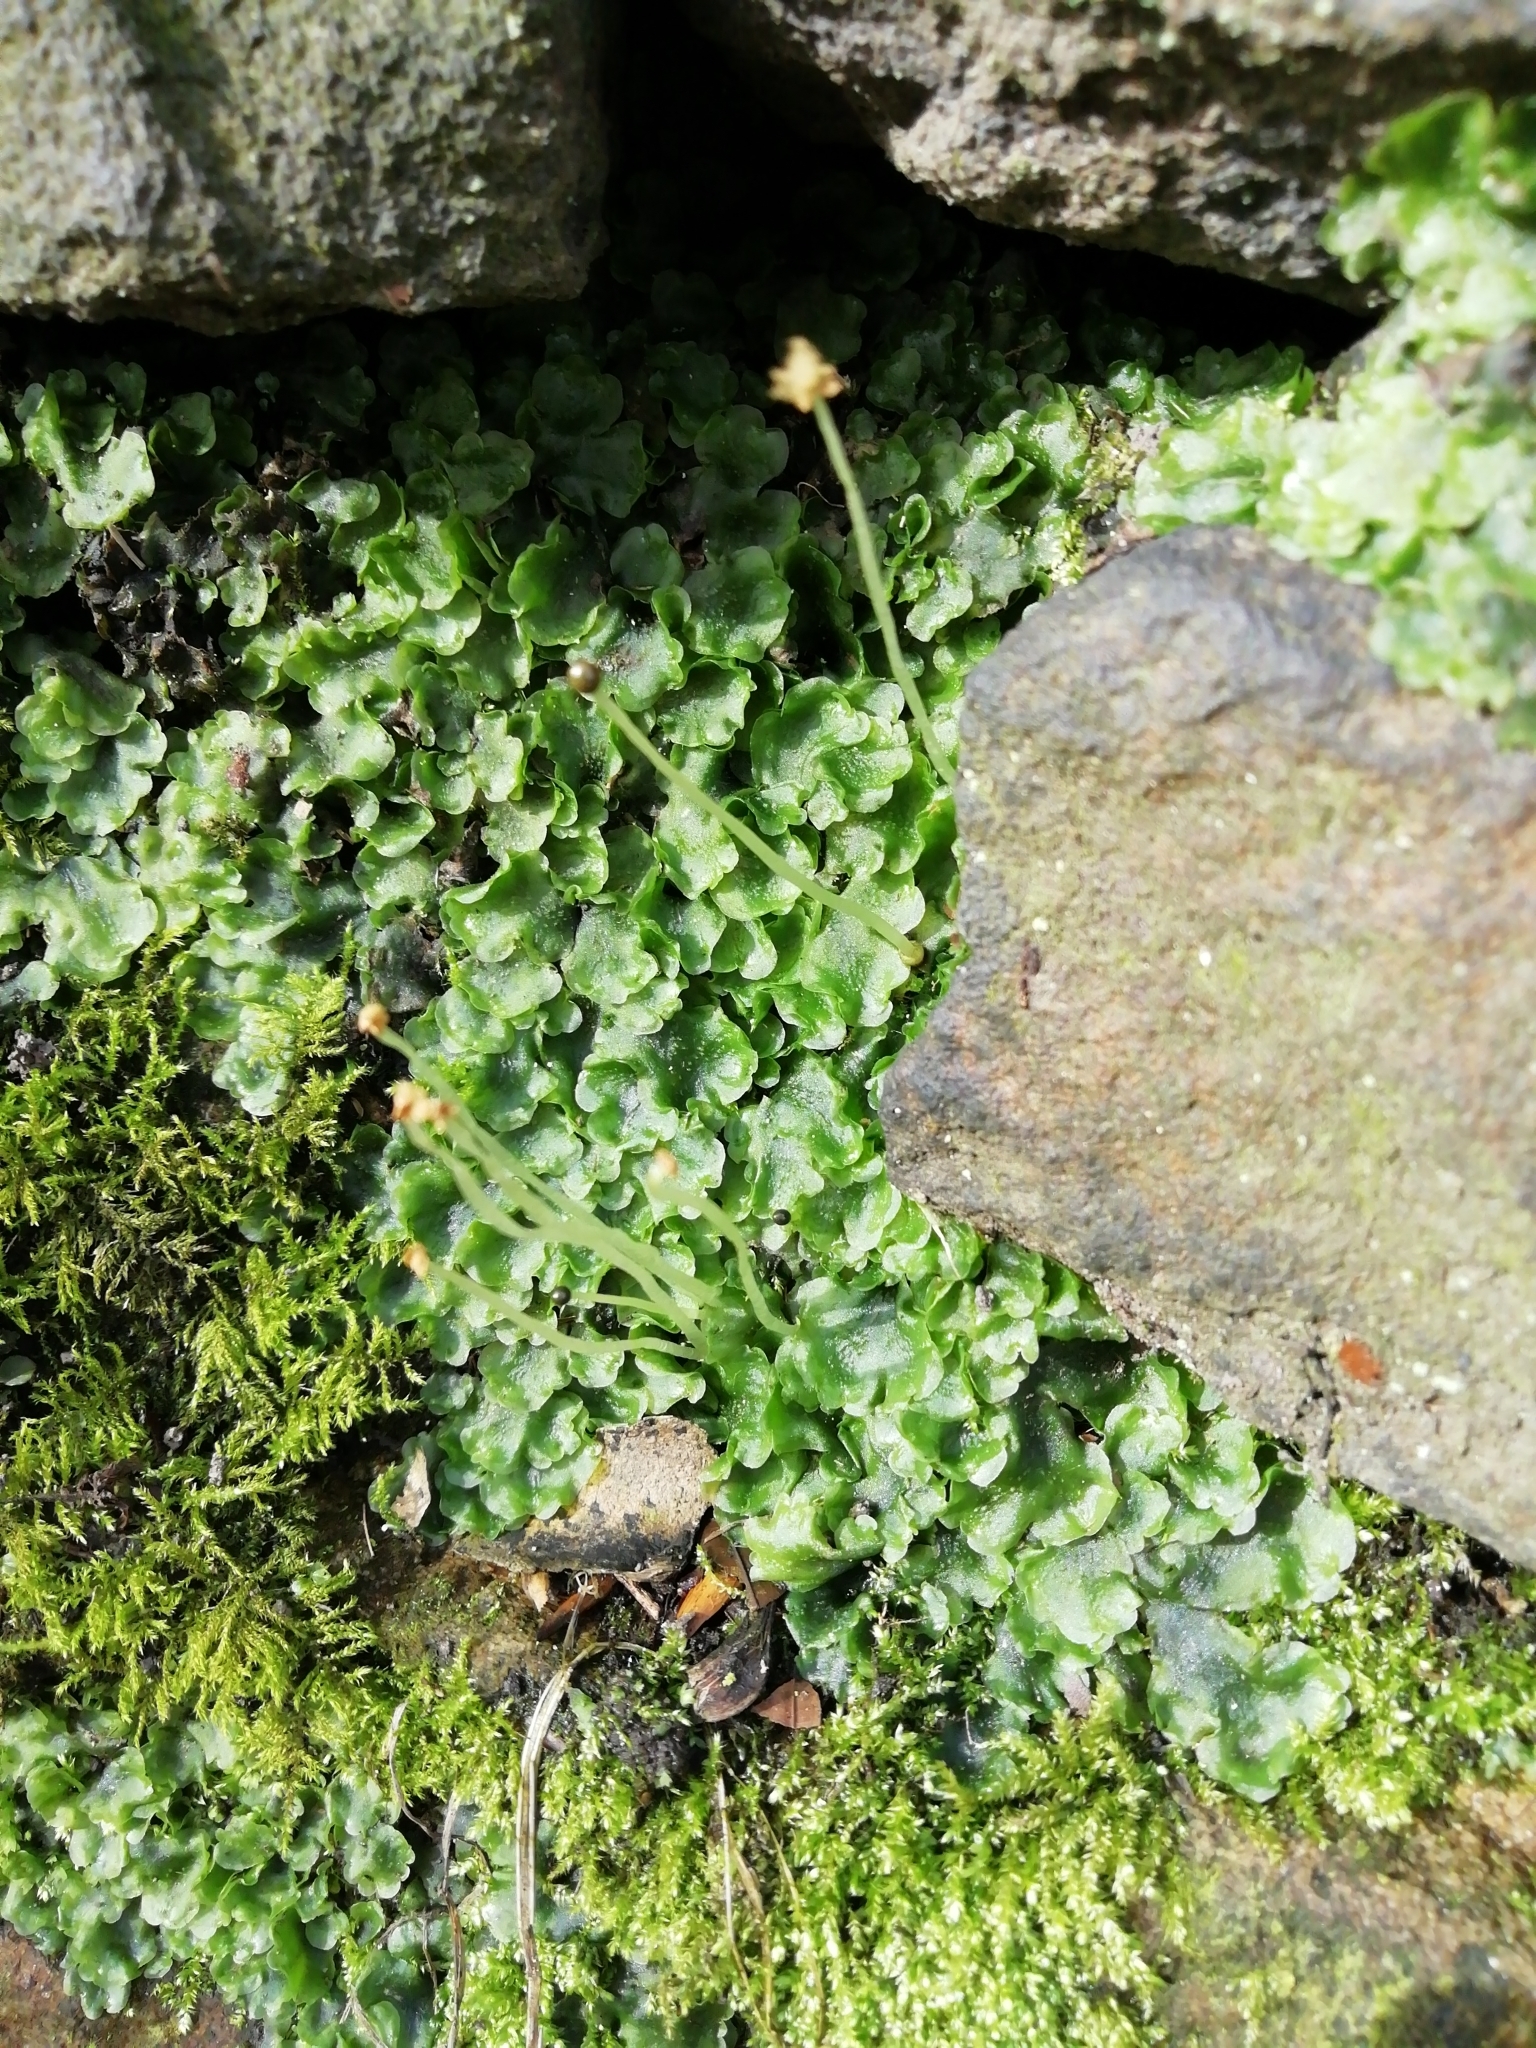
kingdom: Plantae
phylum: Marchantiophyta
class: Jungermanniopsida
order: Pelliales
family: Pelliaceae
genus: Pellia
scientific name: Pellia epiphylla
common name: Common pellia
